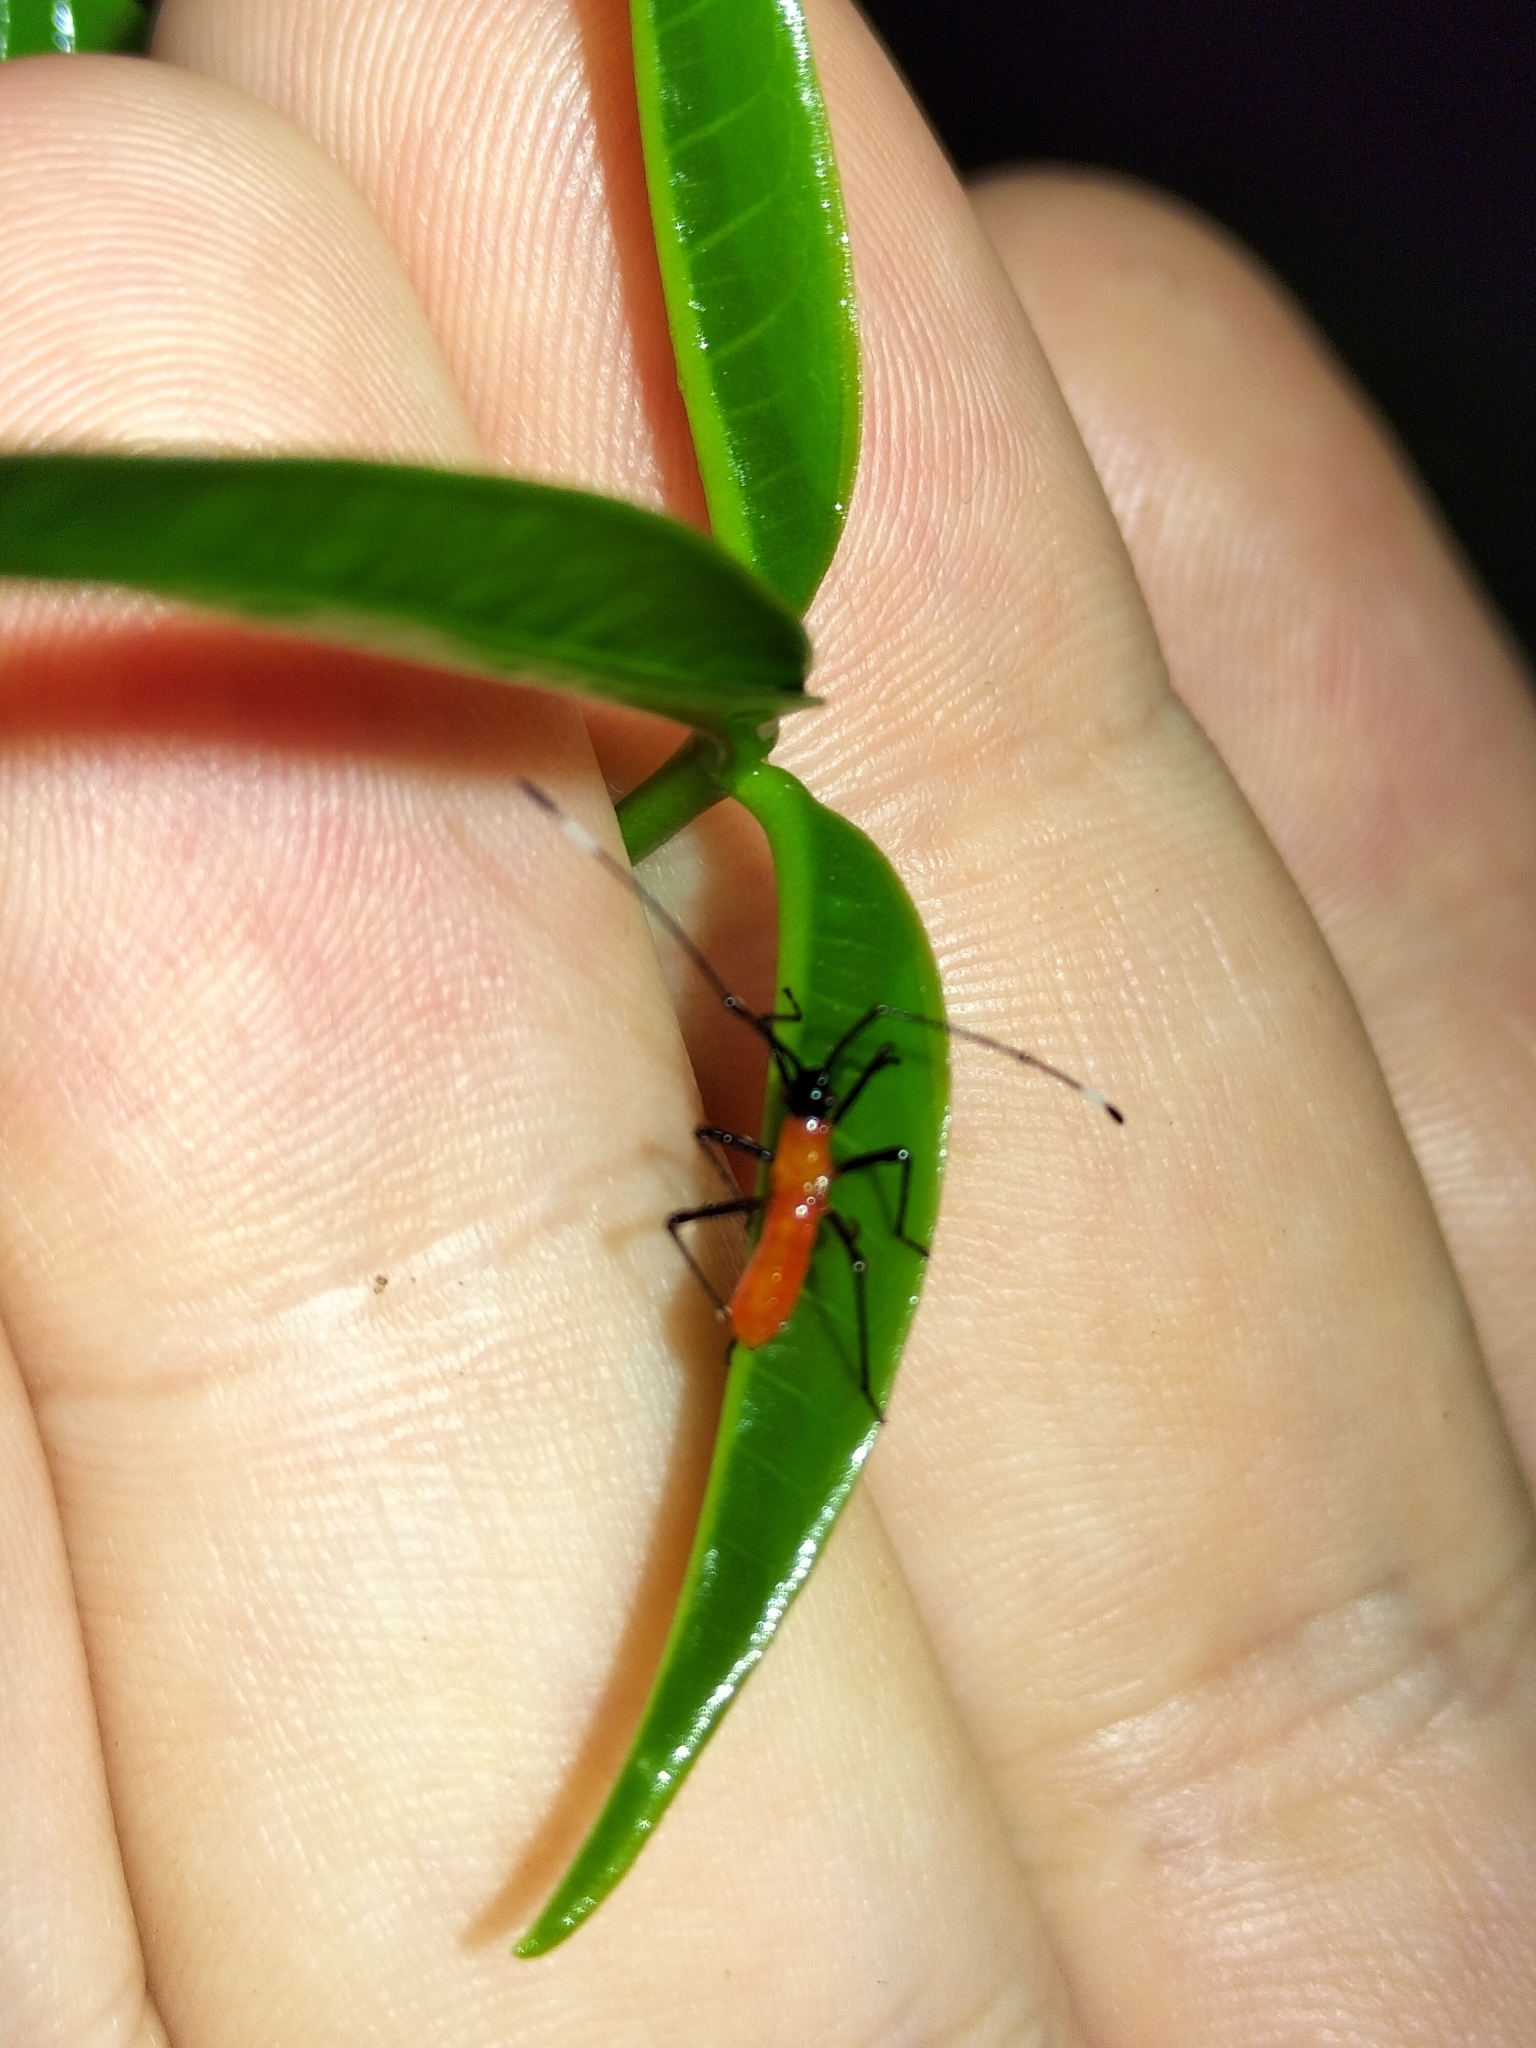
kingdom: Animalia
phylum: Arthropoda
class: Insecta
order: Hemiptera
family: Coreidae
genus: Jalina
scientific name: Jalina ocularis
